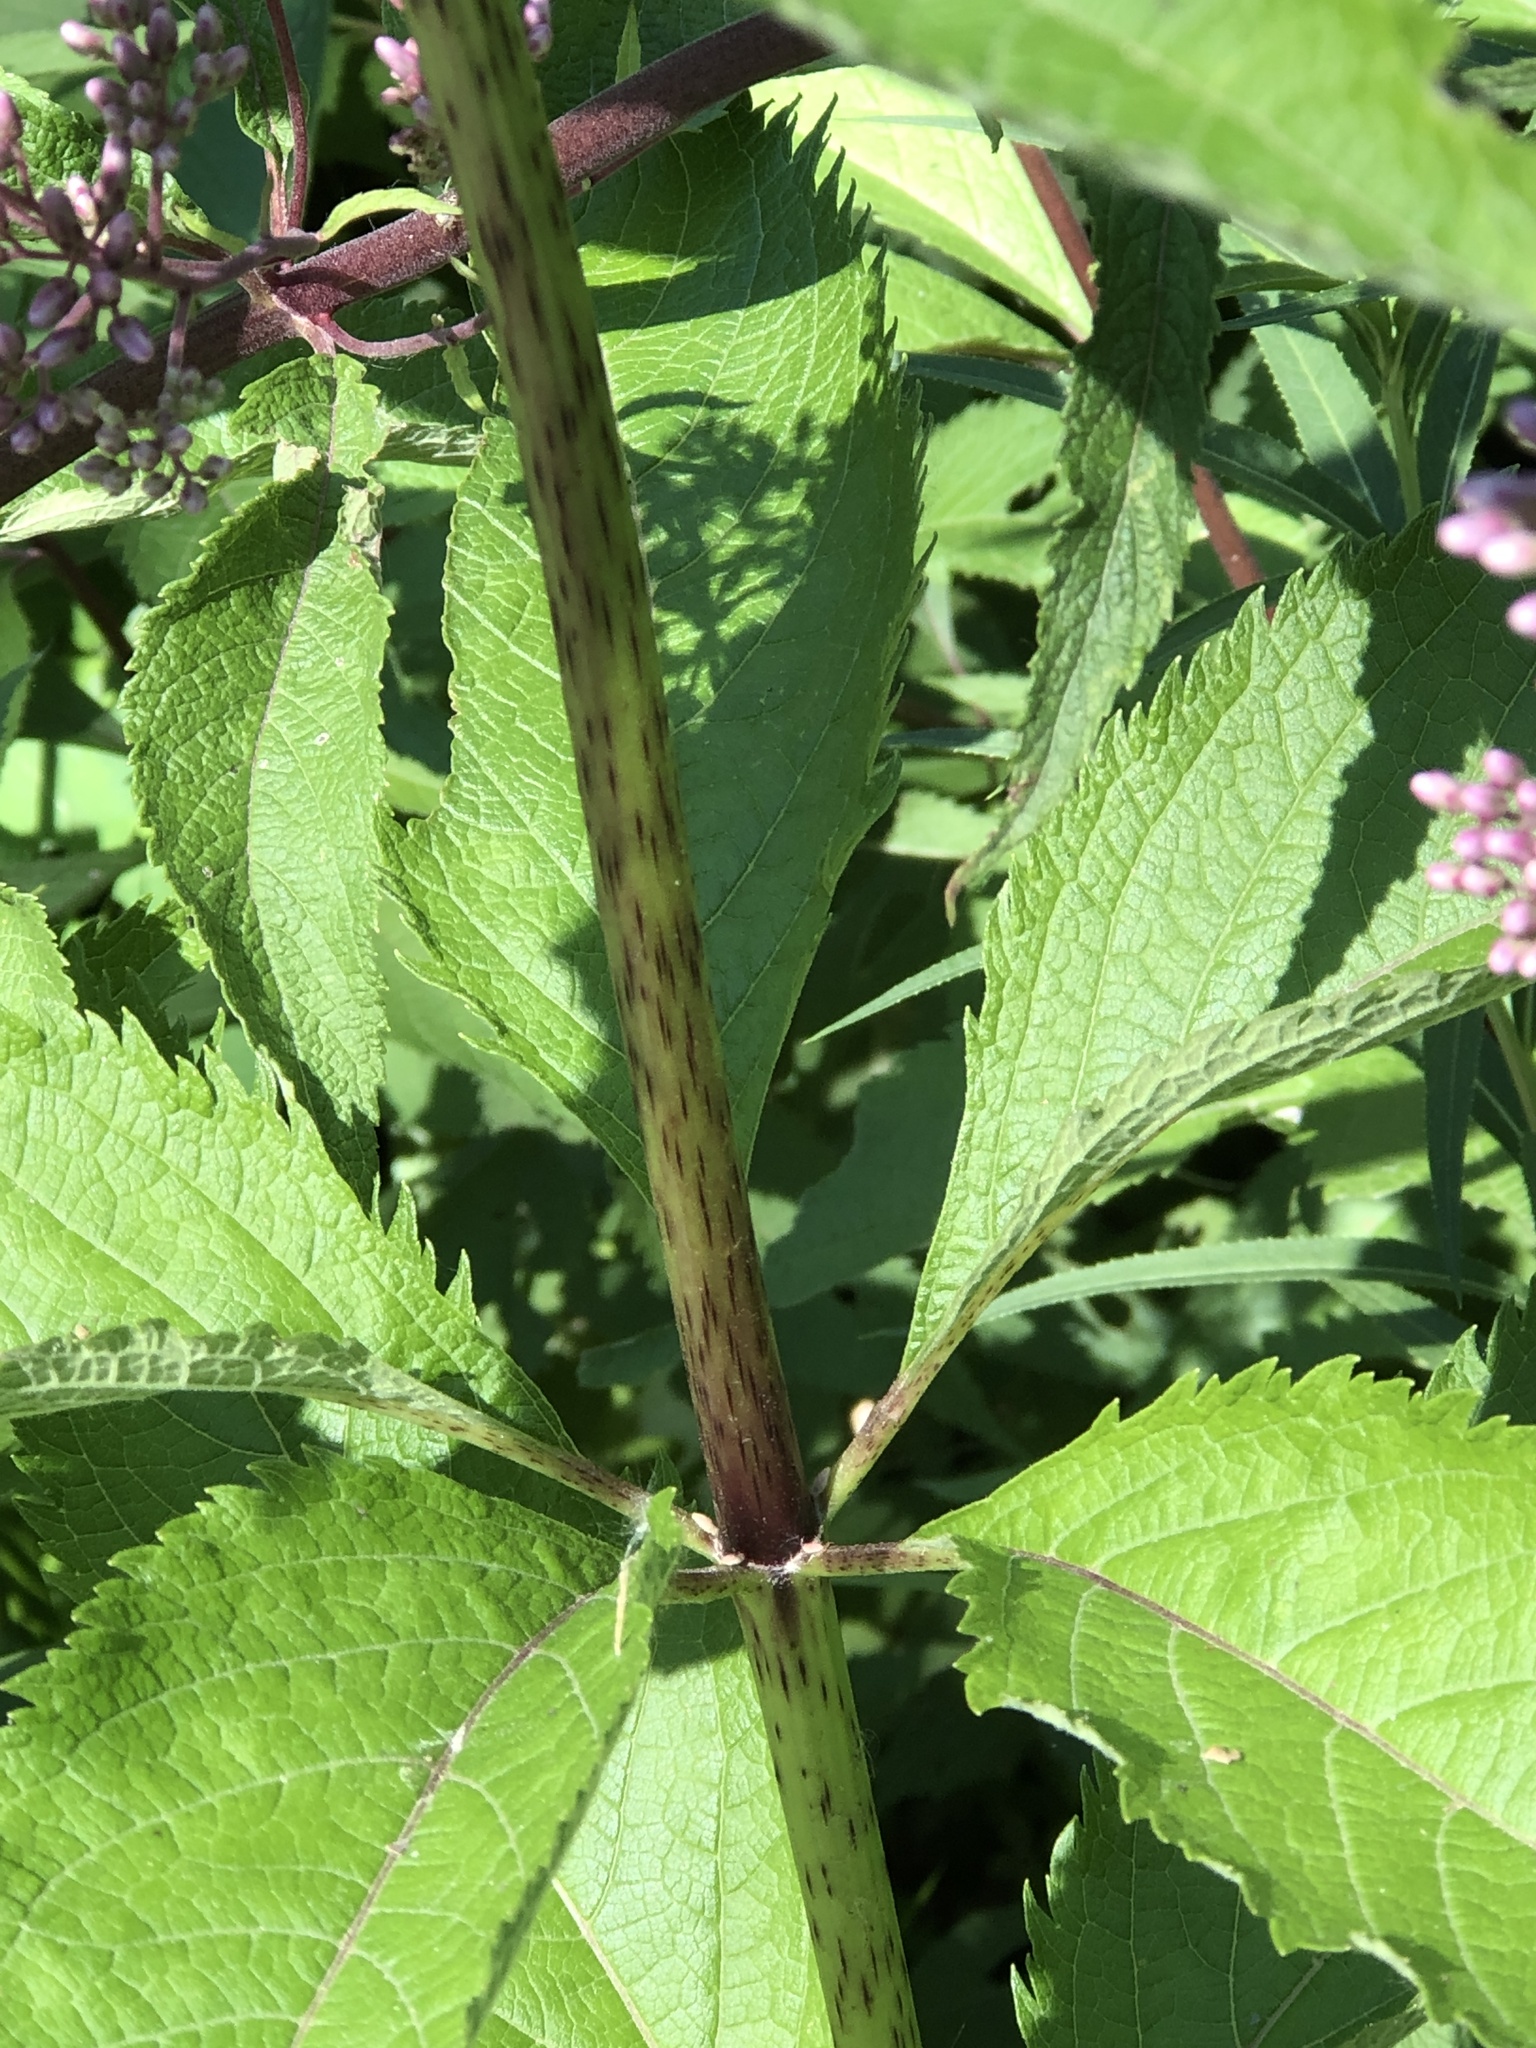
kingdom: Plantae
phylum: Tracheophyta
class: Magnoliopsida
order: Asterales
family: Asteraceae
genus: Eutrochium
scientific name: Eutrochium maculatum
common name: Spotted joe pye weed
